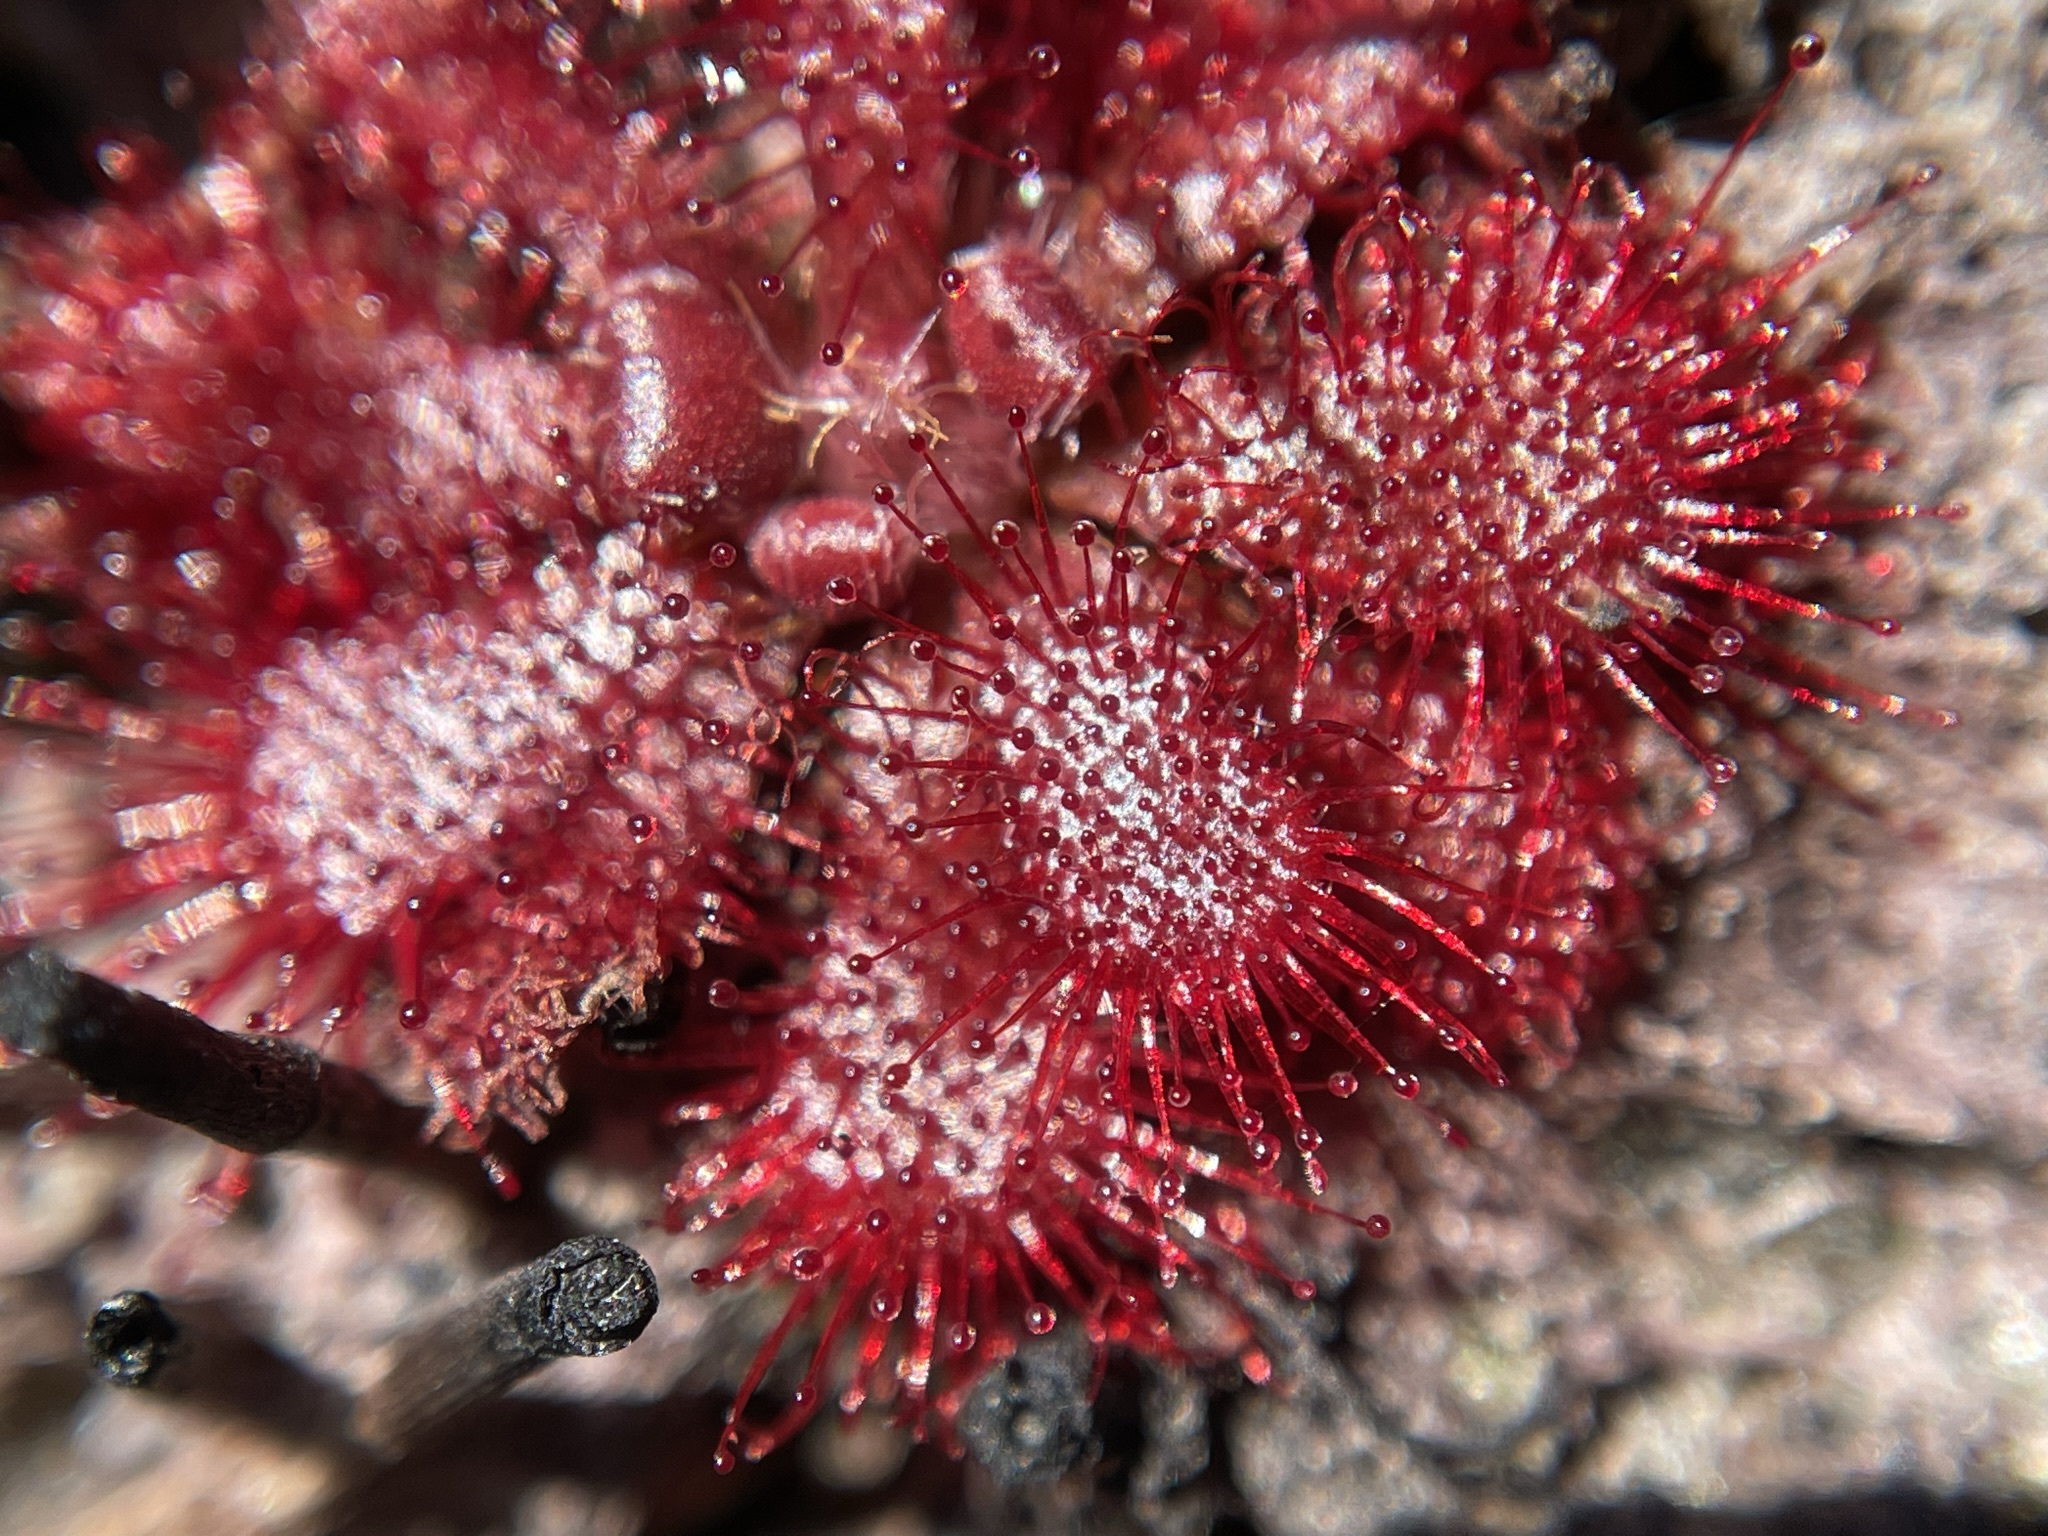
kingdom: Plantae
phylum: Tracheophyta
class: Magnoliopsida
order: Caryophyllales
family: Droseraceae
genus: Drosera
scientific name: Drosera spatulata
